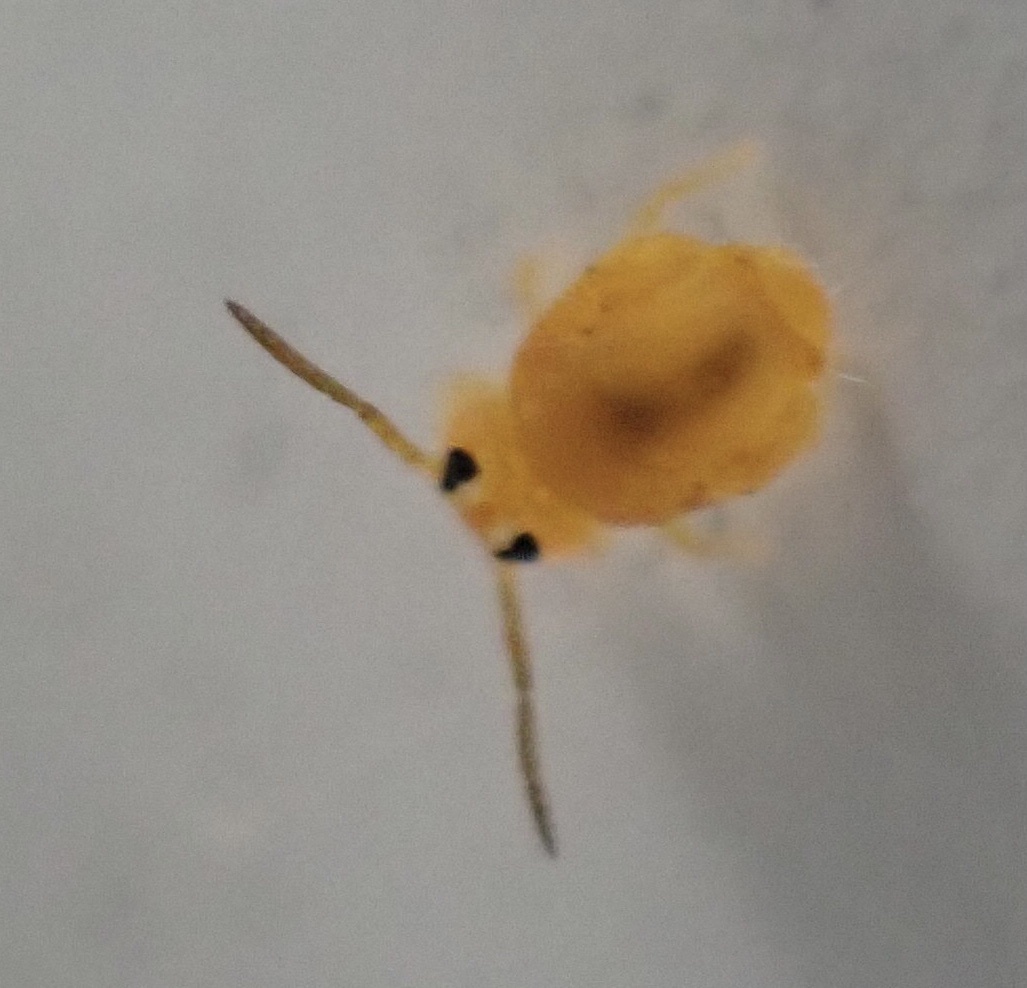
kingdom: Animalia
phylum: Arthropoda
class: Collembola
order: Symphypleona
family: Katiannidae
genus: Sminthurinus
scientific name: Sminthurinus henshawi
